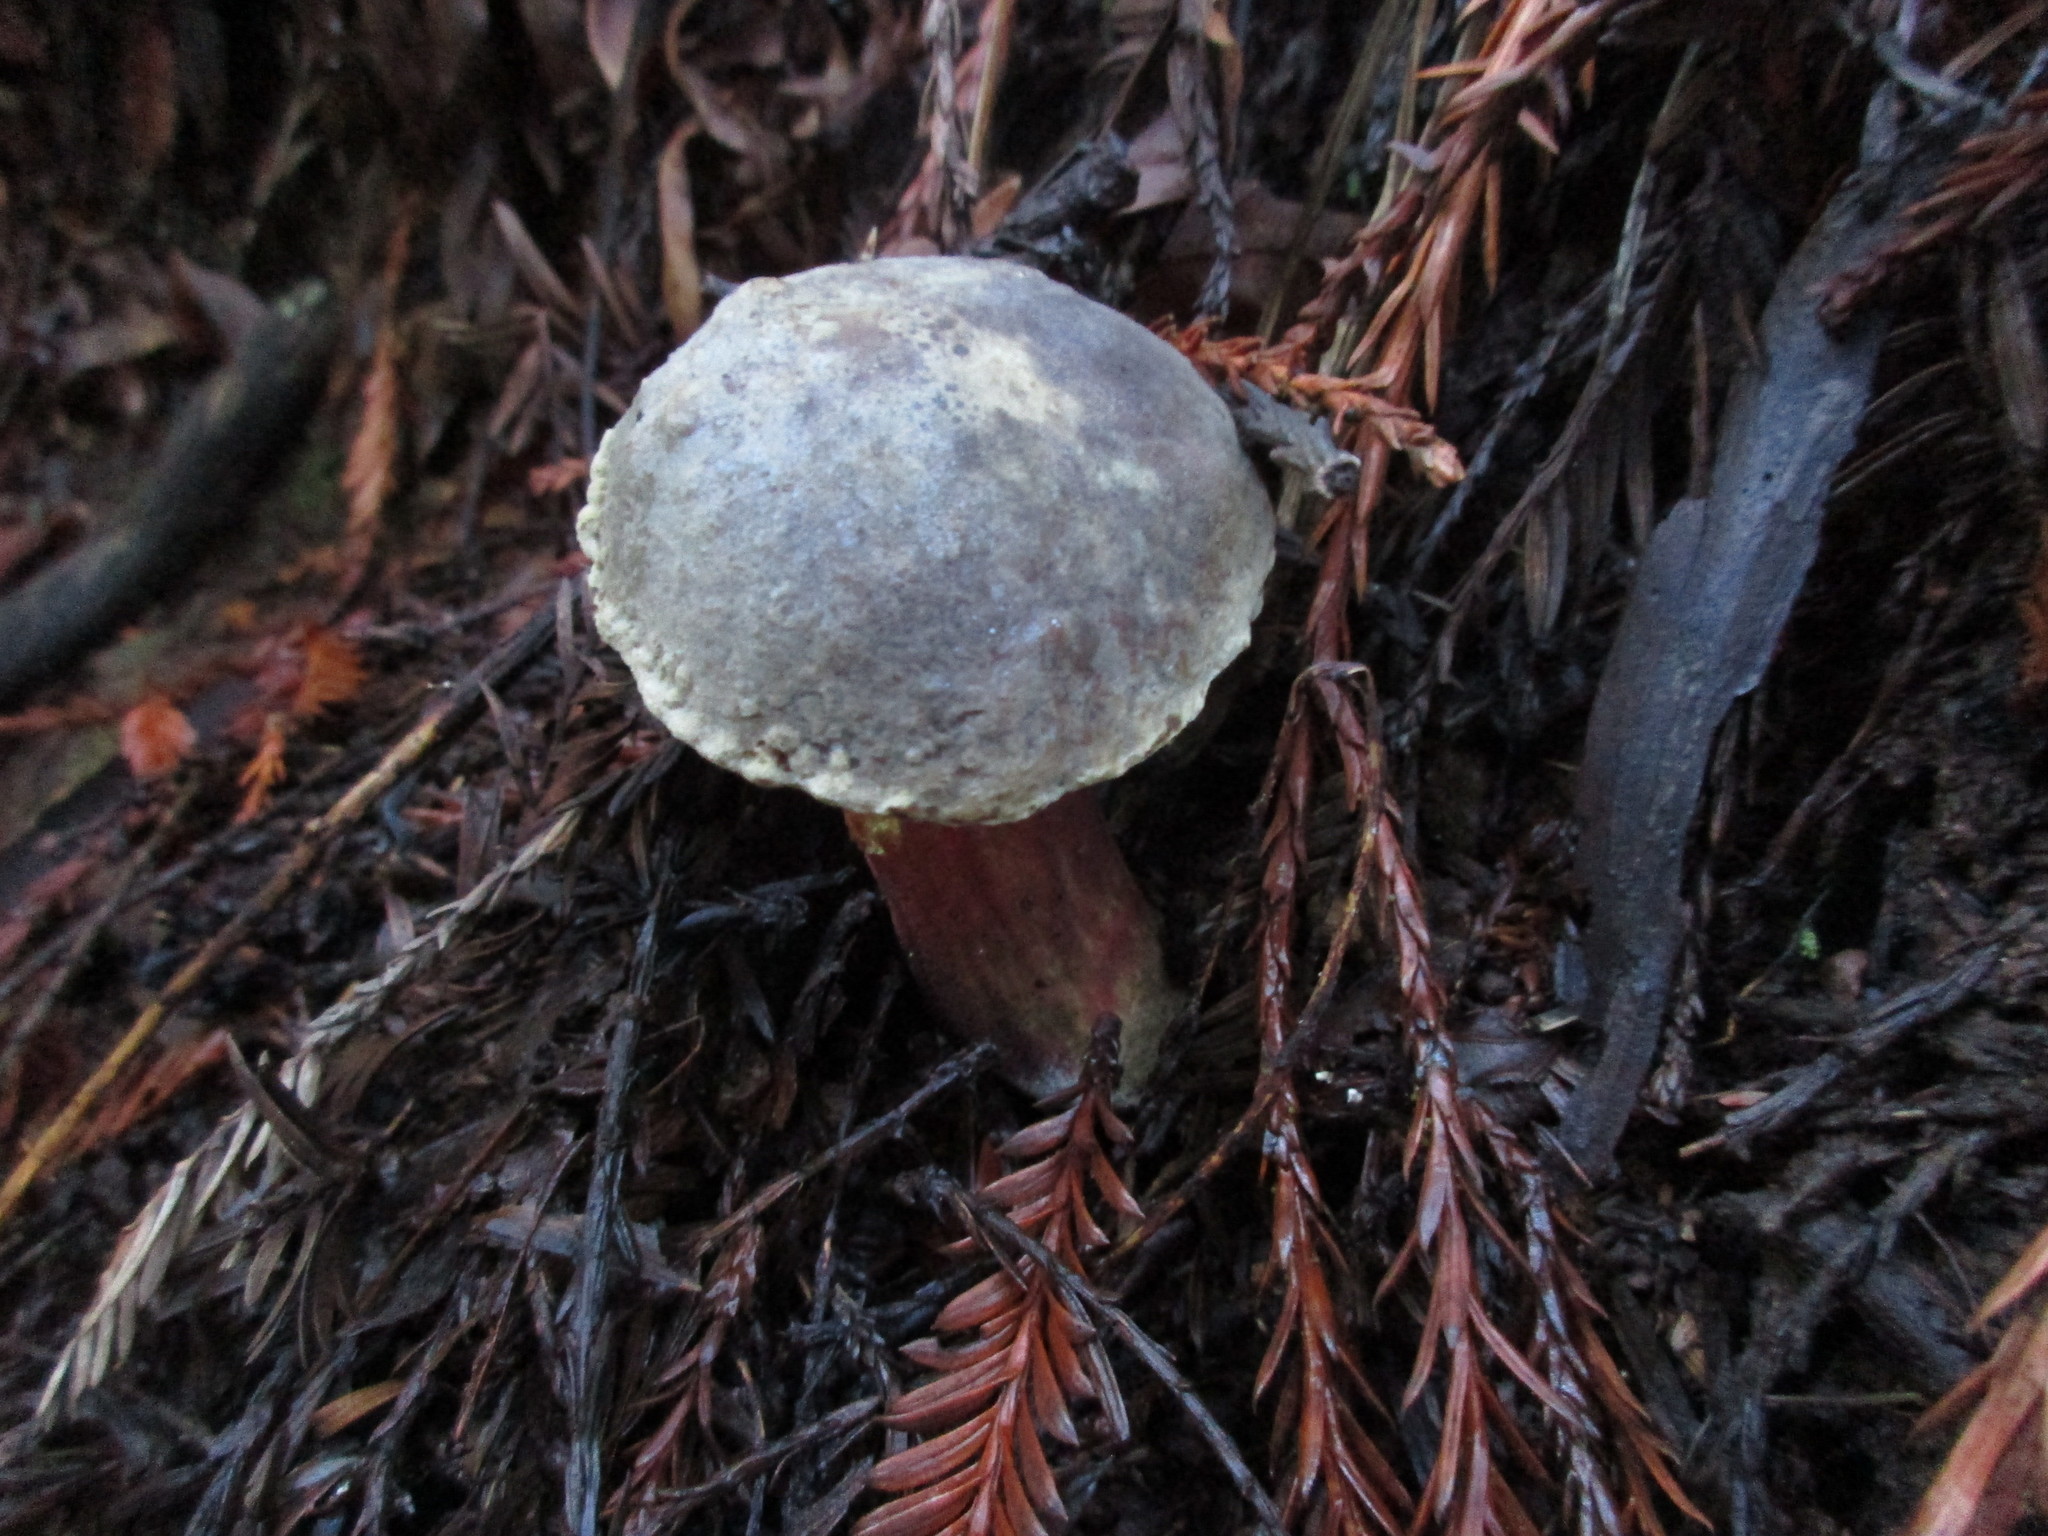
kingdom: Fungi
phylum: Basidiomycota
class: Agaricomycetes
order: Boletales
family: Boletaceae
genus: Xerocomellus
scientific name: Xerocomellus atropurpureus
